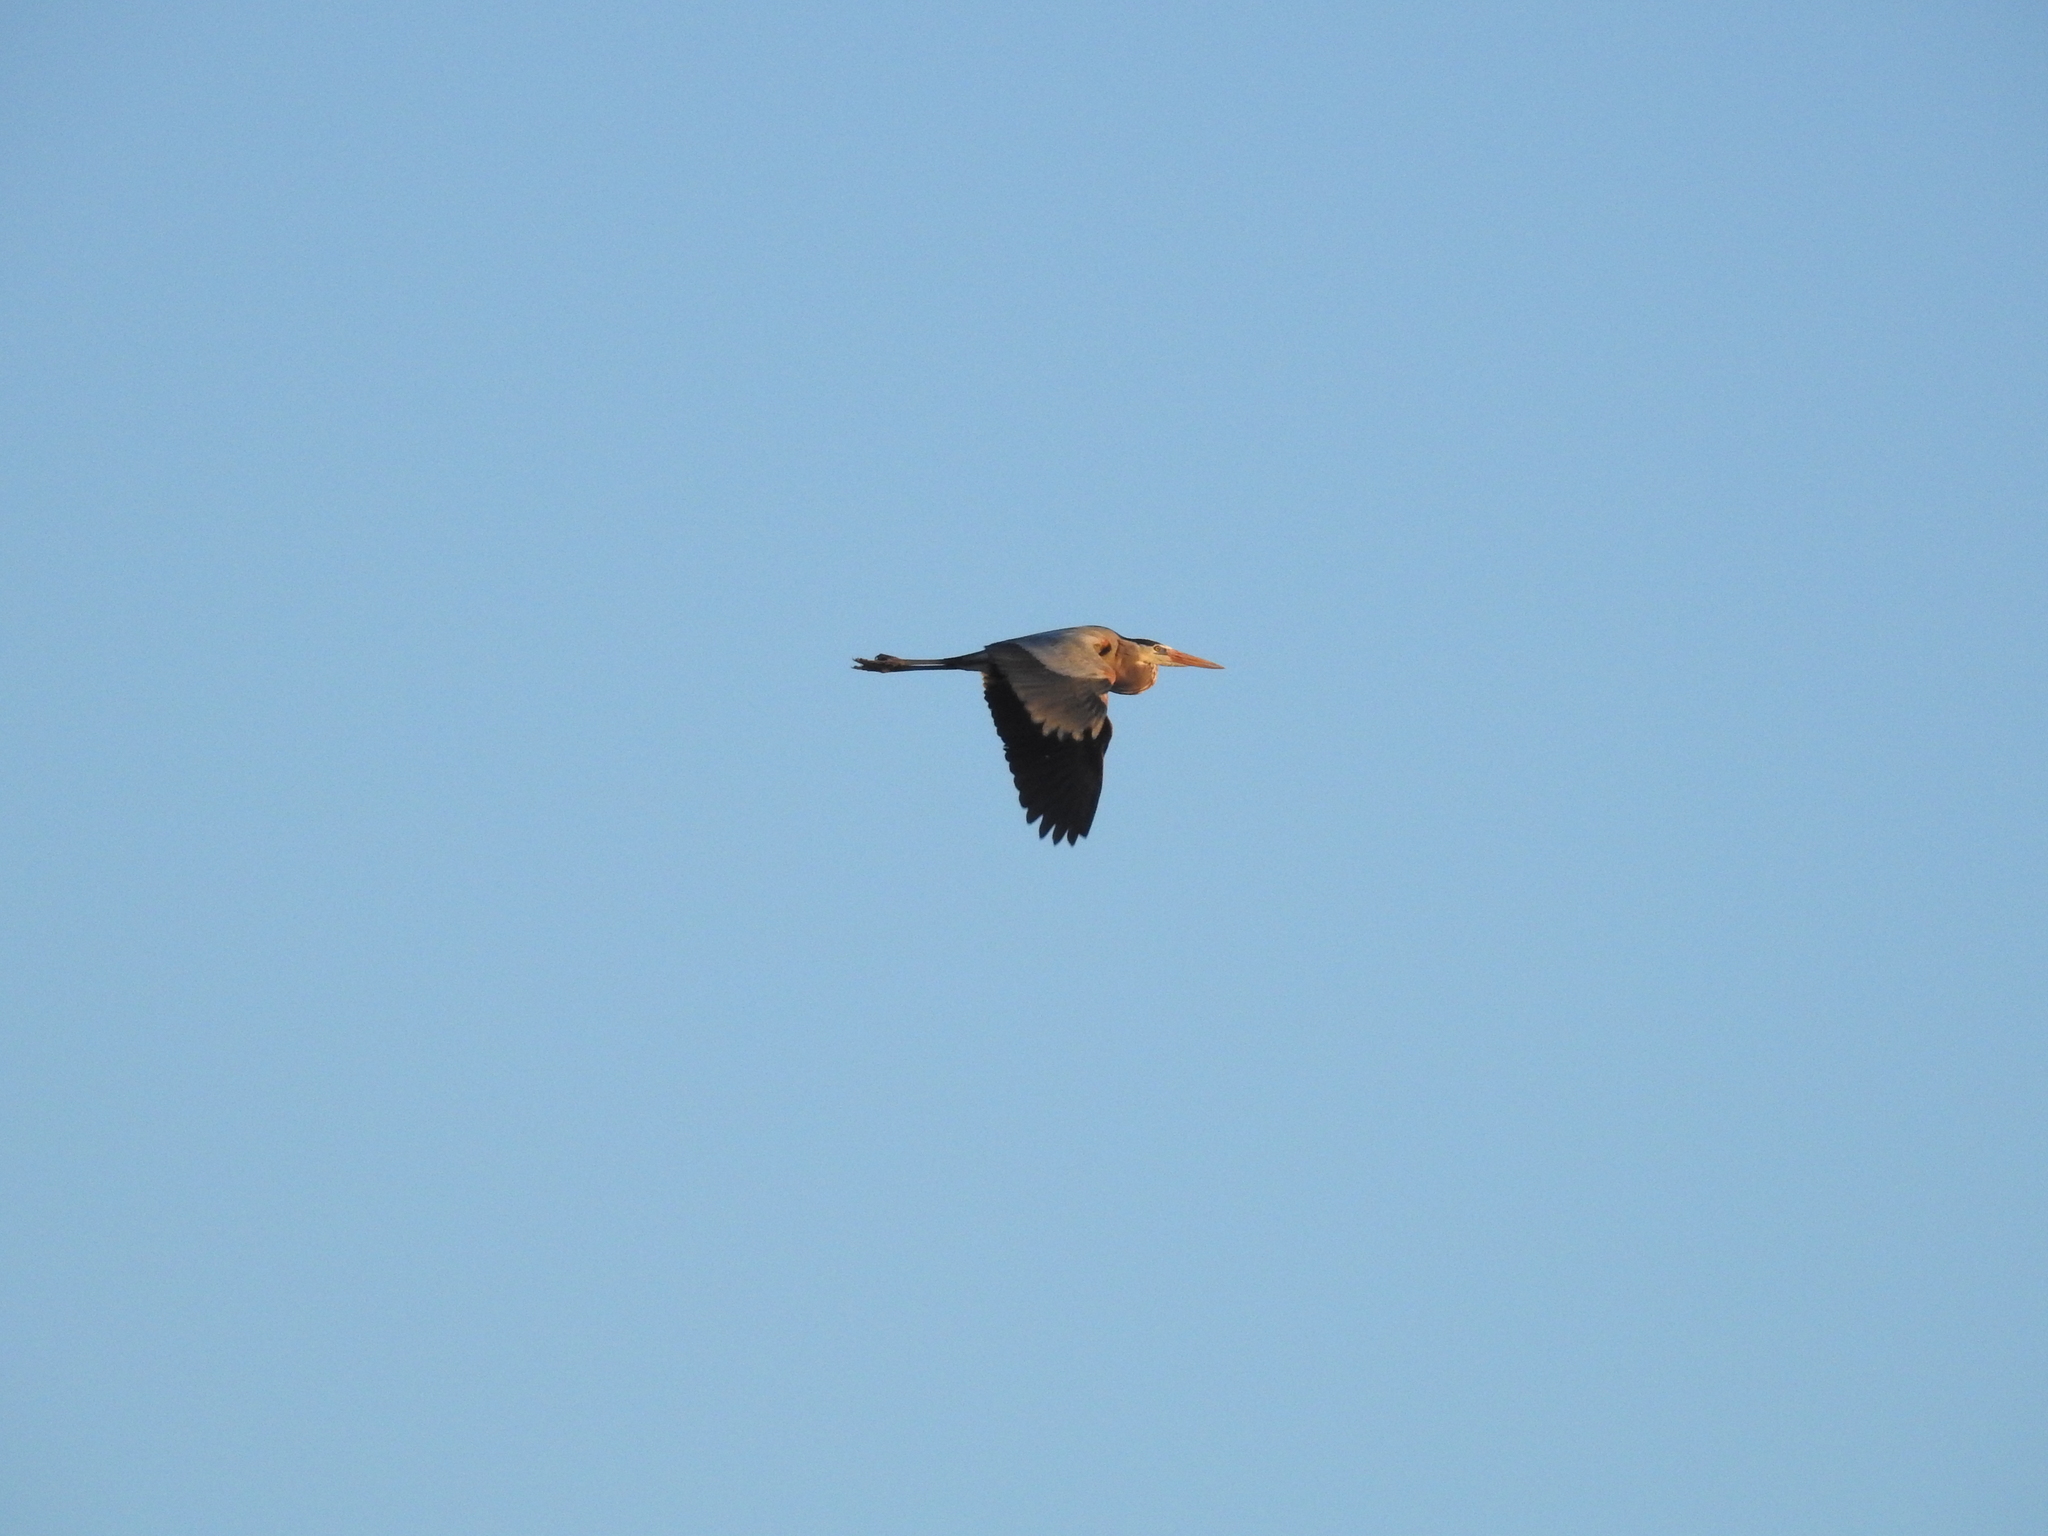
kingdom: Animalia
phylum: Chordata
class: Aves
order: Pelecaniformes
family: Ardeidae
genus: Ardea
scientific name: Ardea herodias
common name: Great blue heron
